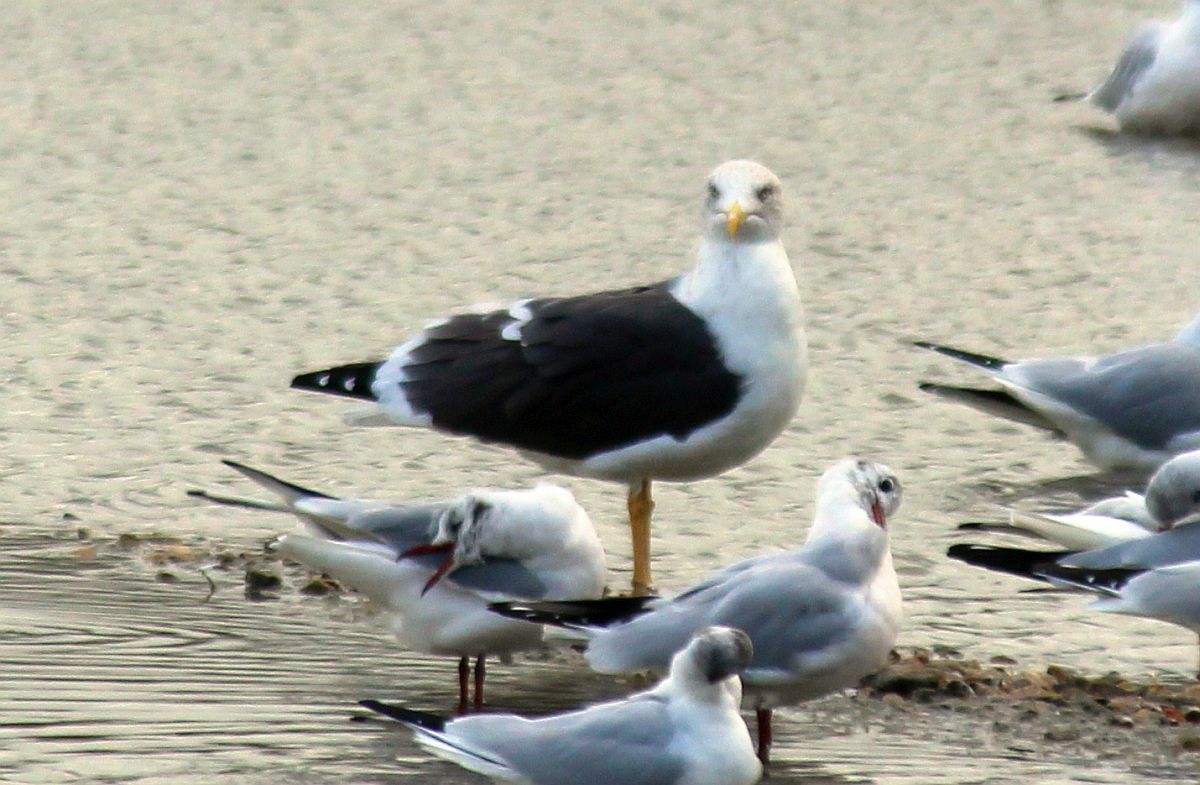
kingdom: Animalia
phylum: Chordata
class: Aves
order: Charadriiformes
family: Laridae
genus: Larus
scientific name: Larus fuscus
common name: Lesser black-backed gull
